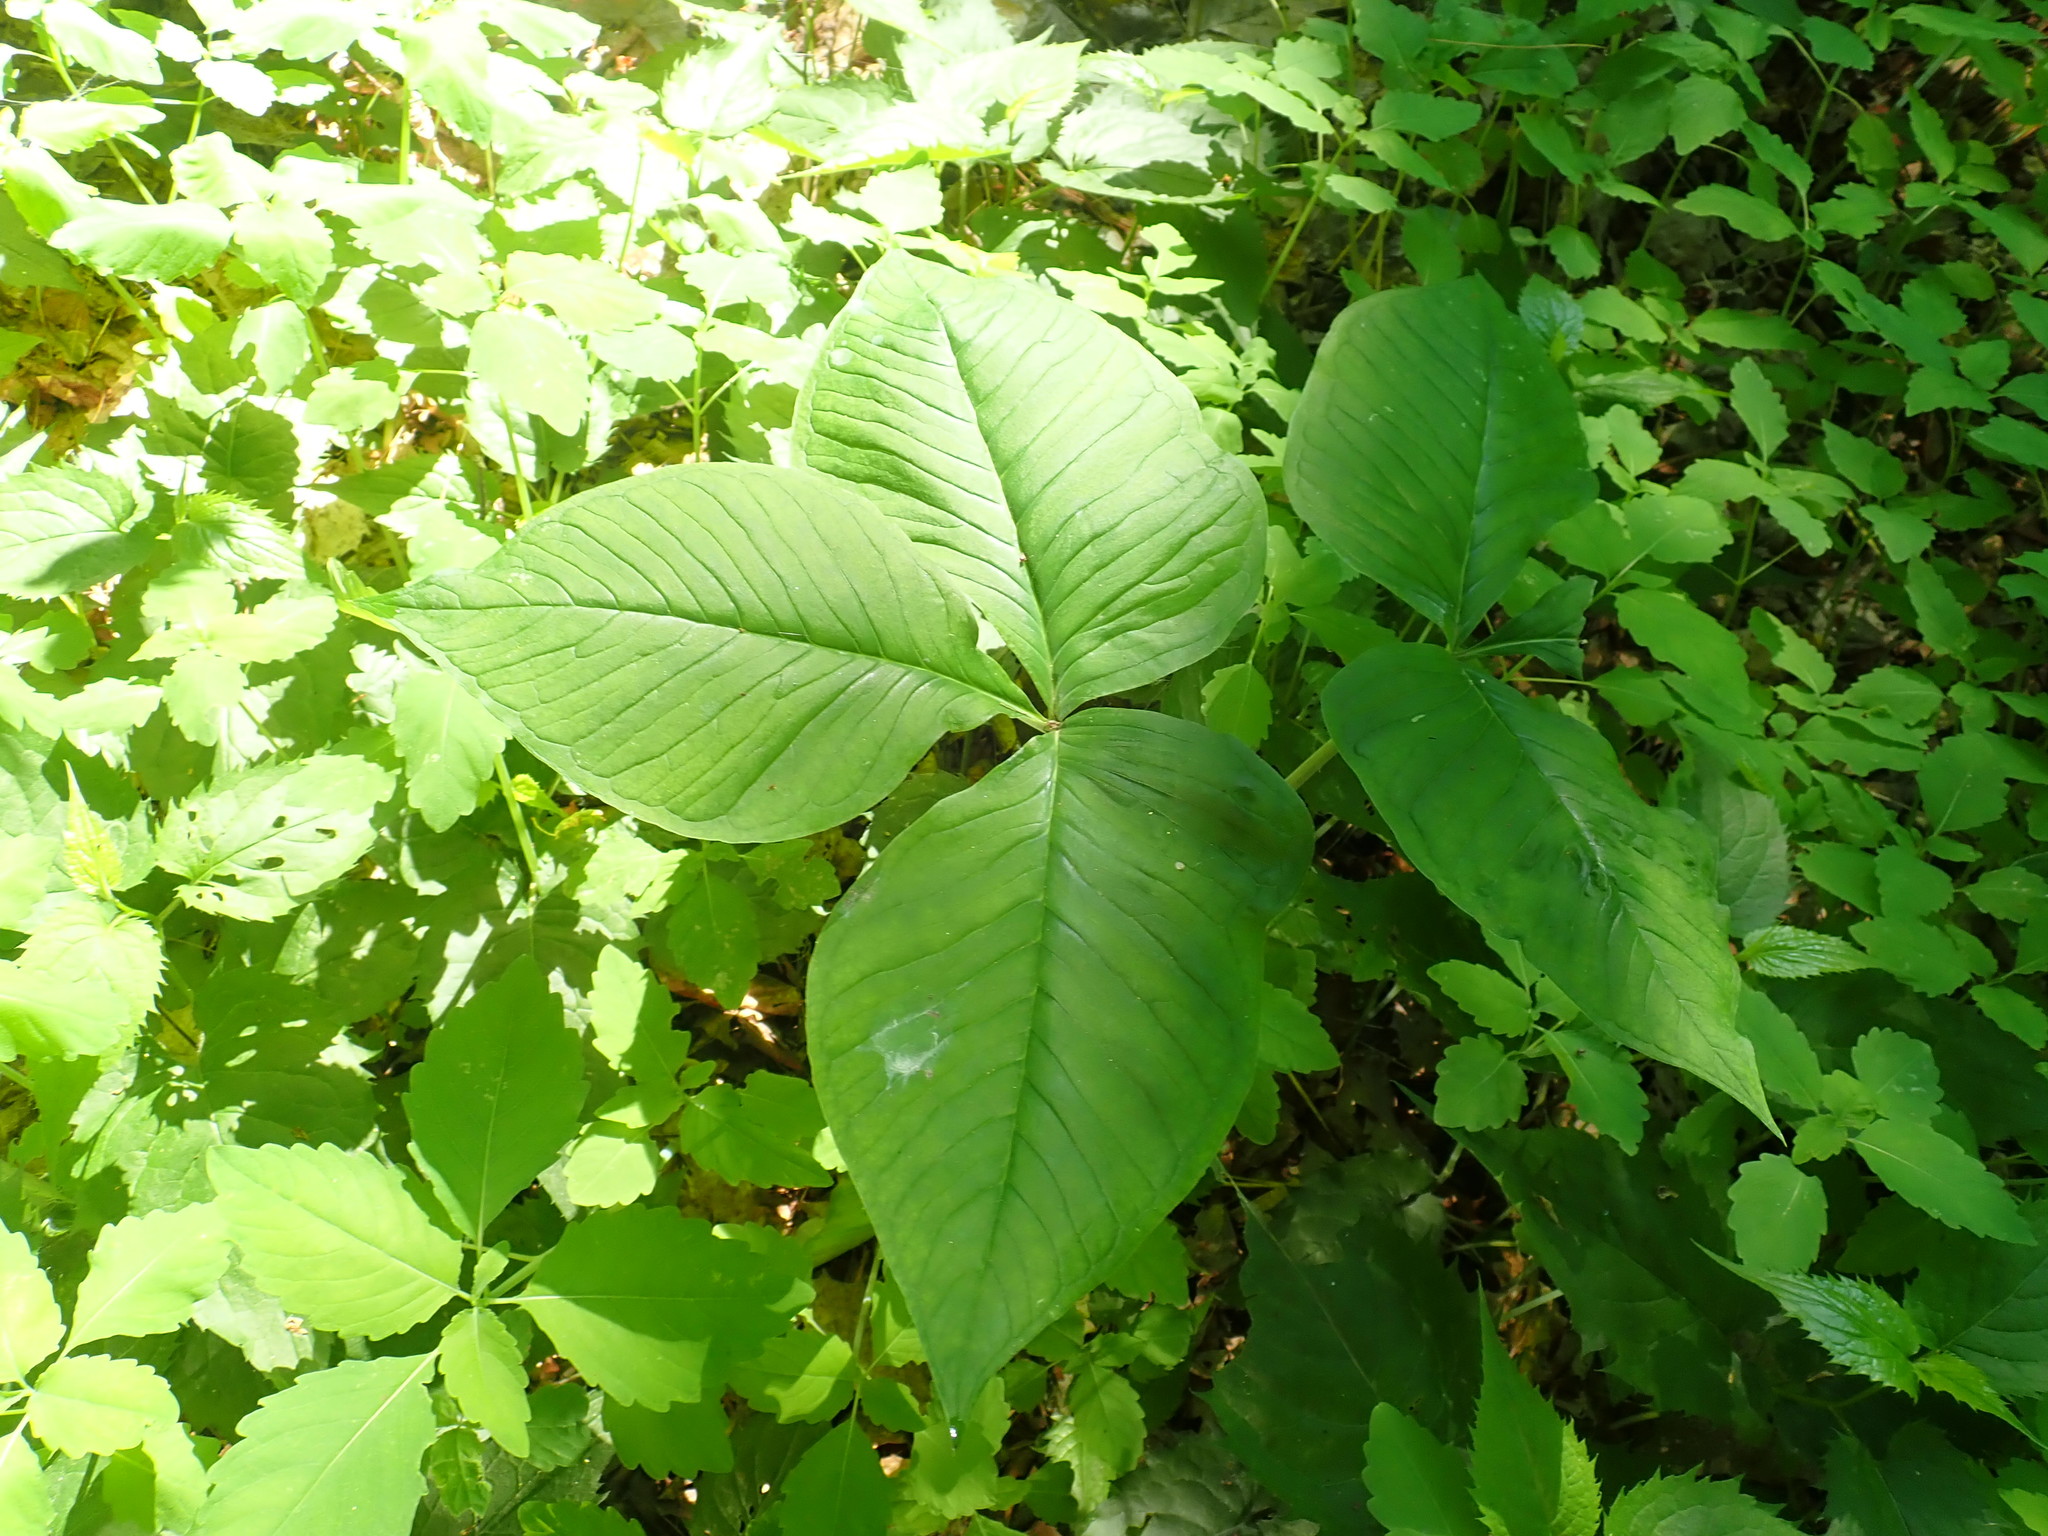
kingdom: Plantae
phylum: Tracheophyta
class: Liliopsida
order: Alismatales
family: Araceae
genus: Arisaema
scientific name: Arisaema triphyllum
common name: Jack-in-the-pulpit
